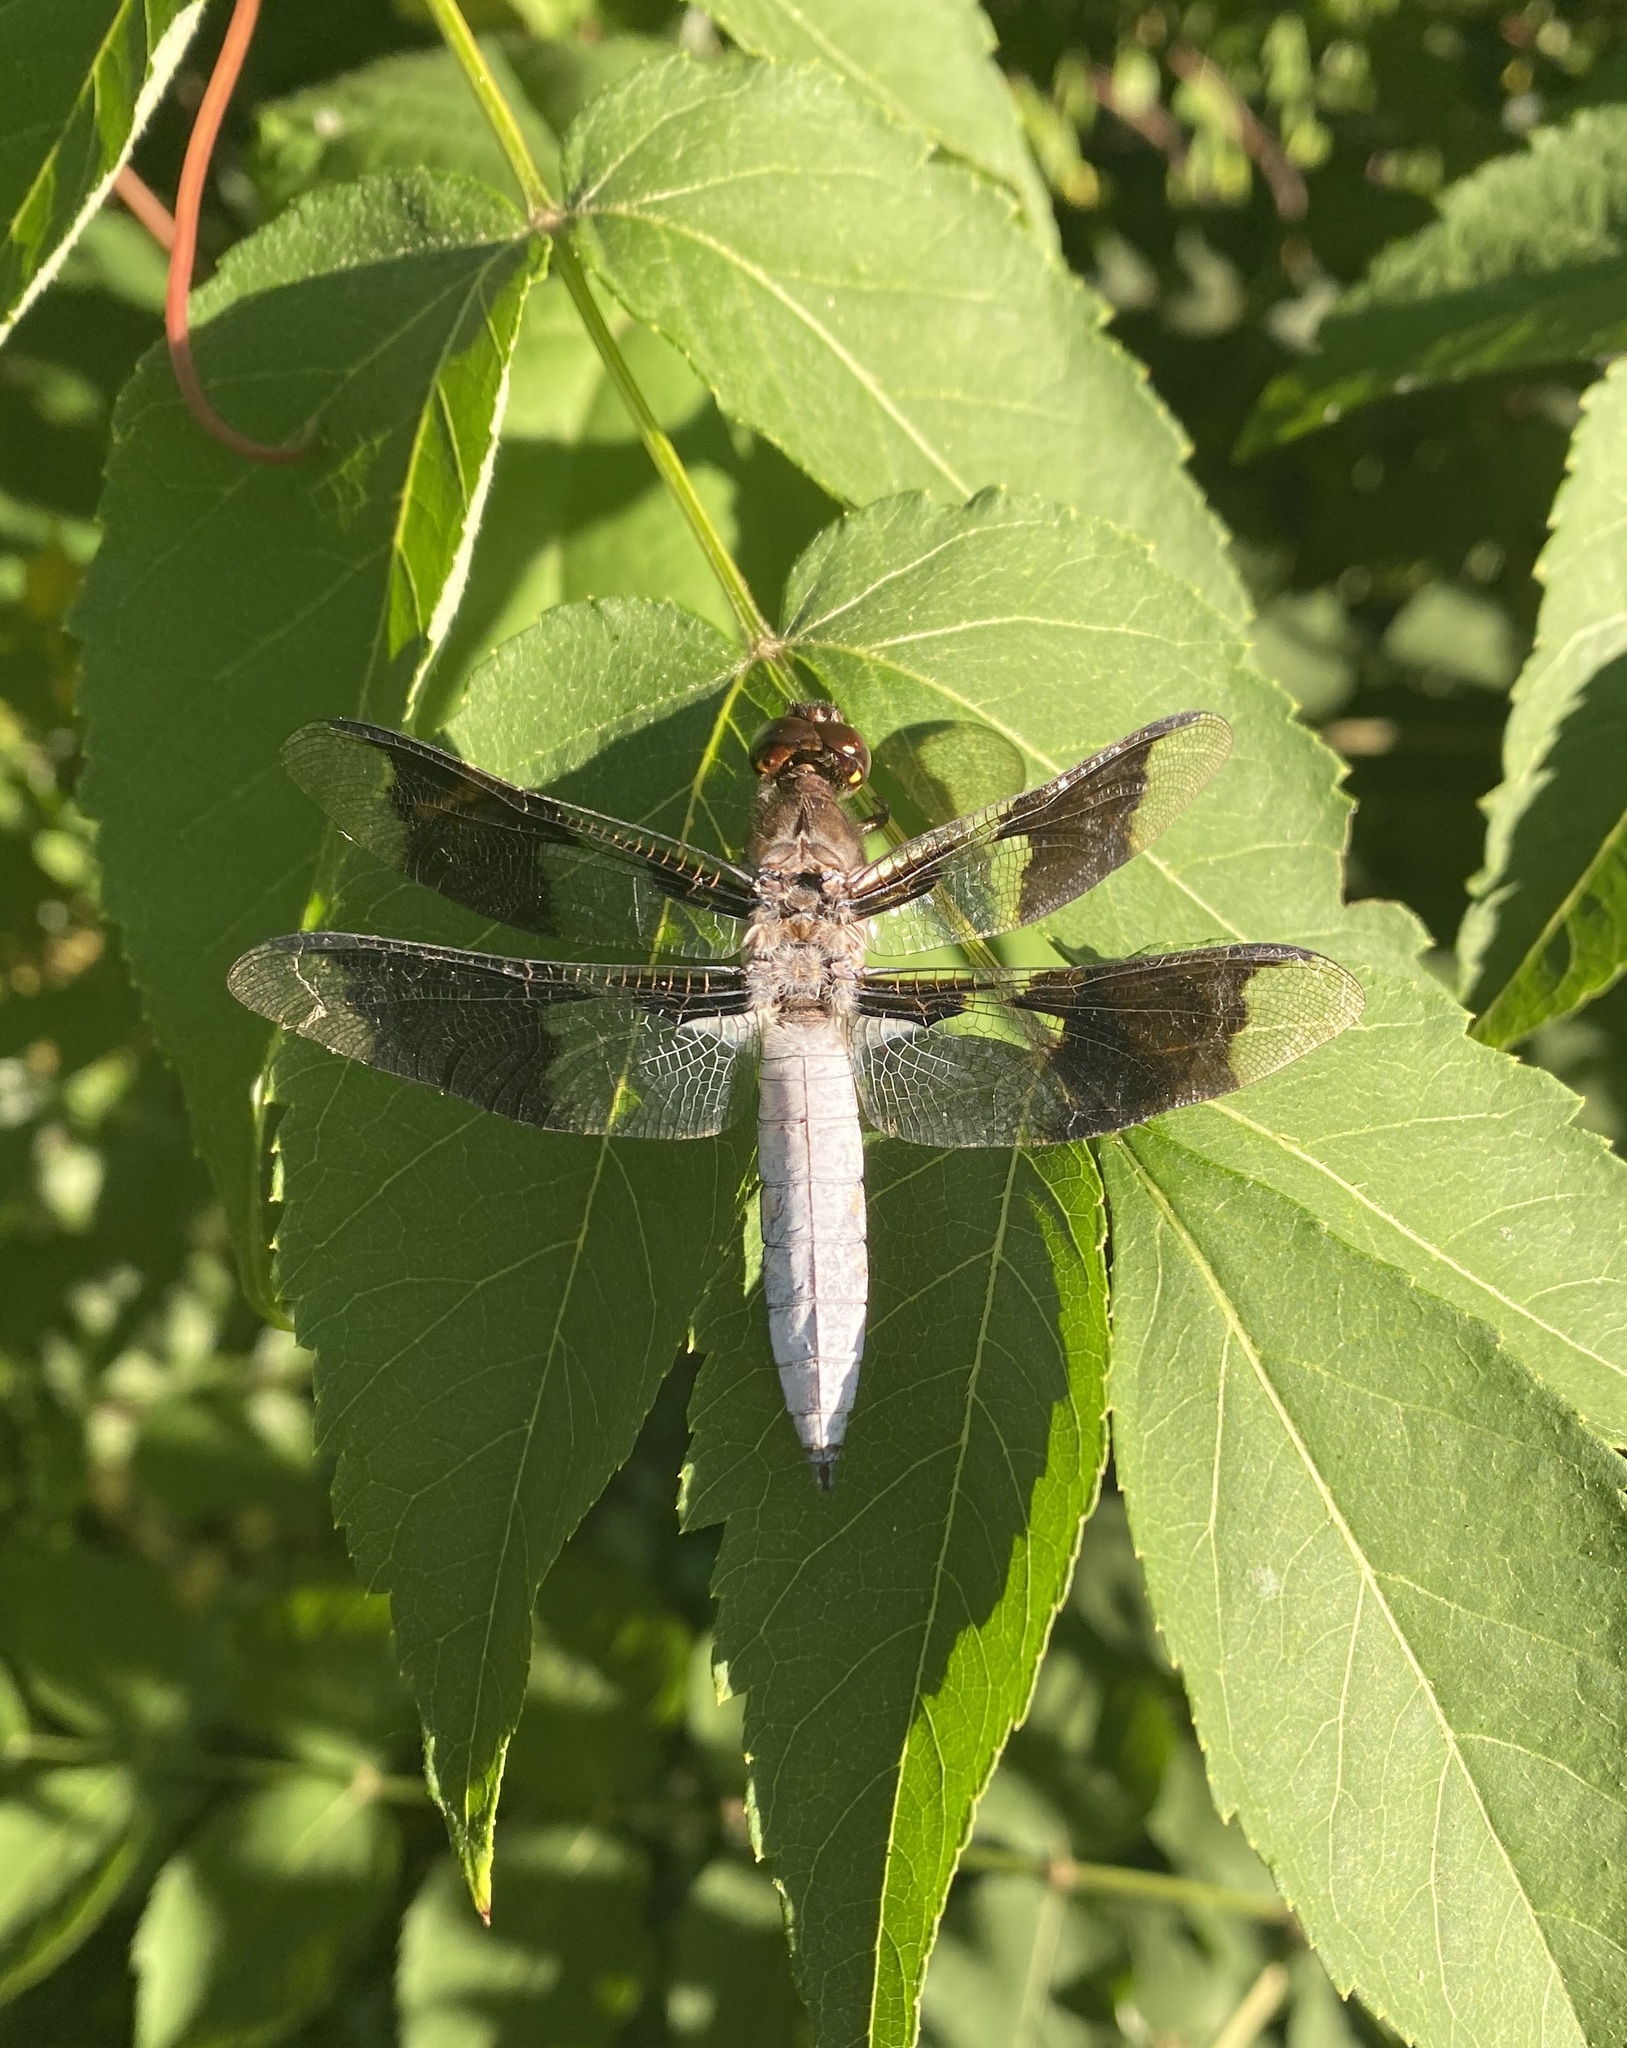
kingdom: Animalia
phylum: Arthropoda
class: Insecta
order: Odonata
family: Libellulidae
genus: Plathemis
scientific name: Plathemis lydia
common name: Common whitetail
